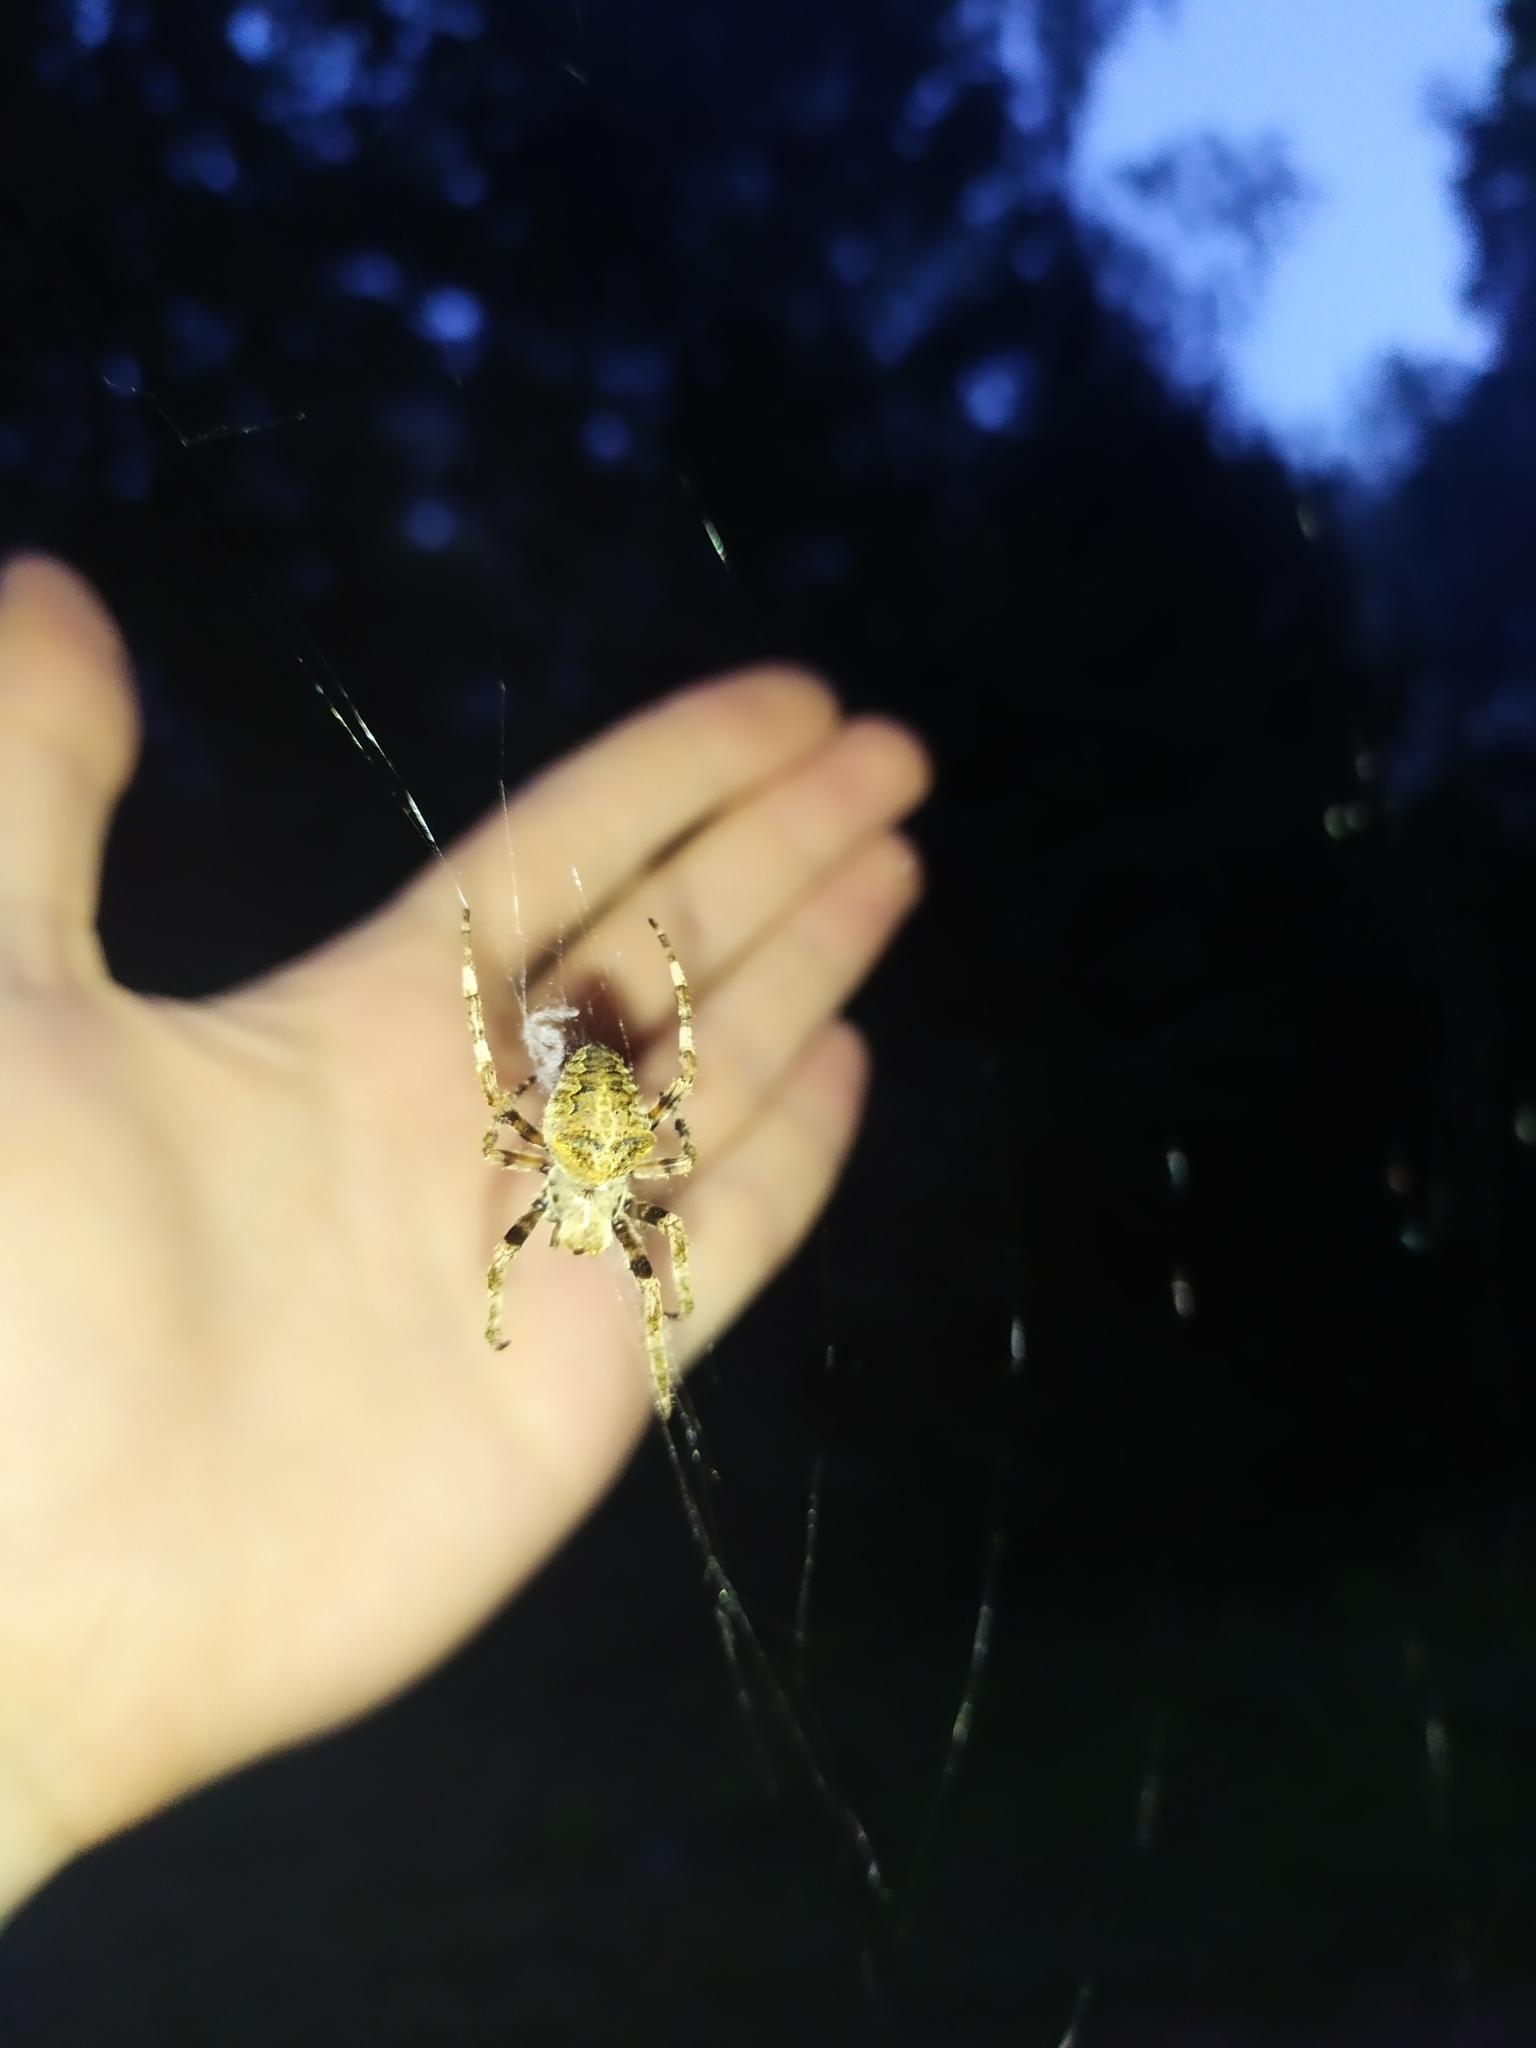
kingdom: Animalia
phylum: Arthropoda
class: Arachnida
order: Araneae
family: Araneidae
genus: Araneus
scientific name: Araneus angulatus
